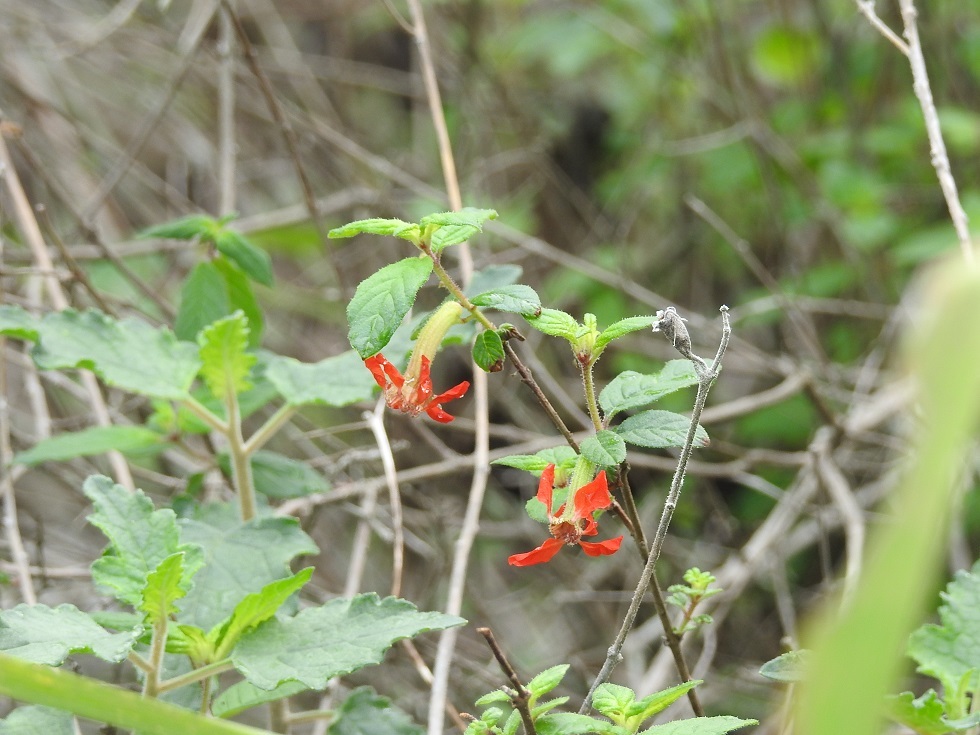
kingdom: Plantae
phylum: Tracheophyta
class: Magnoliopsida
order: Myrtales
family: Lythraceae
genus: Cuphea
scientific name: Cuphea intermedia
